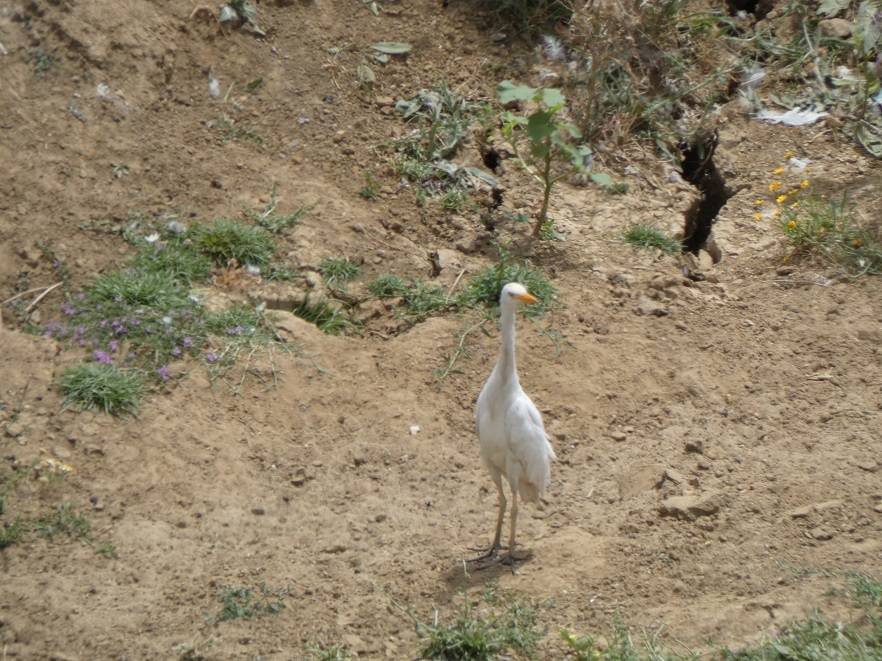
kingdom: Animalia
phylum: Chordata
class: Aves
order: Pelecaniformes
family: Ardeidae
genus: Bubulcus
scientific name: Bubulcus ibis
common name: Cattle egret
